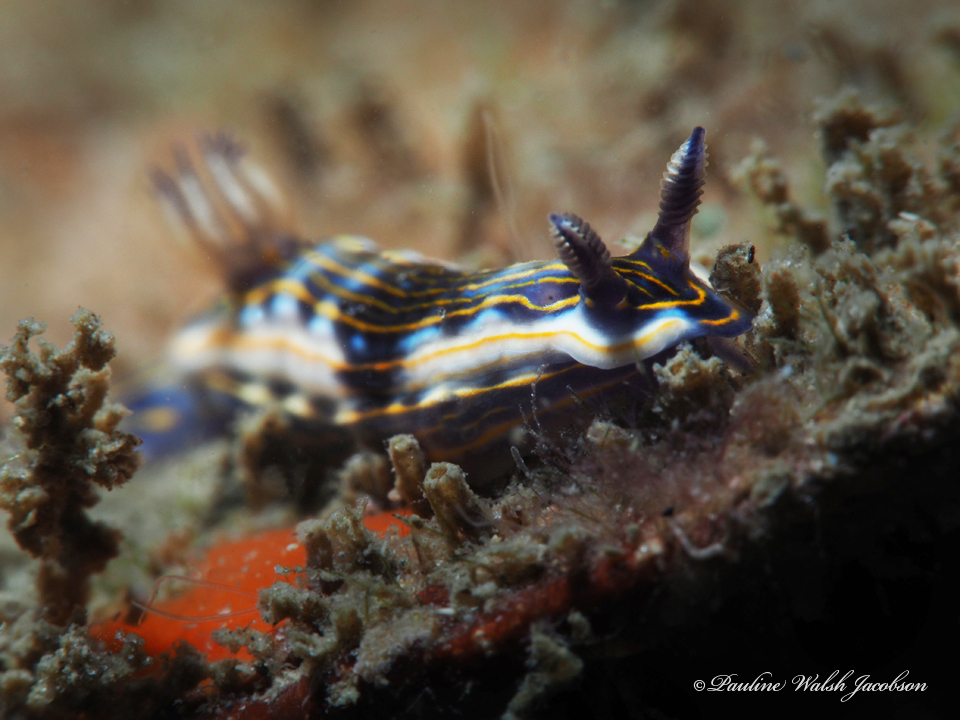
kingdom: Animalia
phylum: Mollusca
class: Gastropoda
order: Nudibranchia
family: Chromodorididae
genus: Felimare
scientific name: Felimare ruthae
